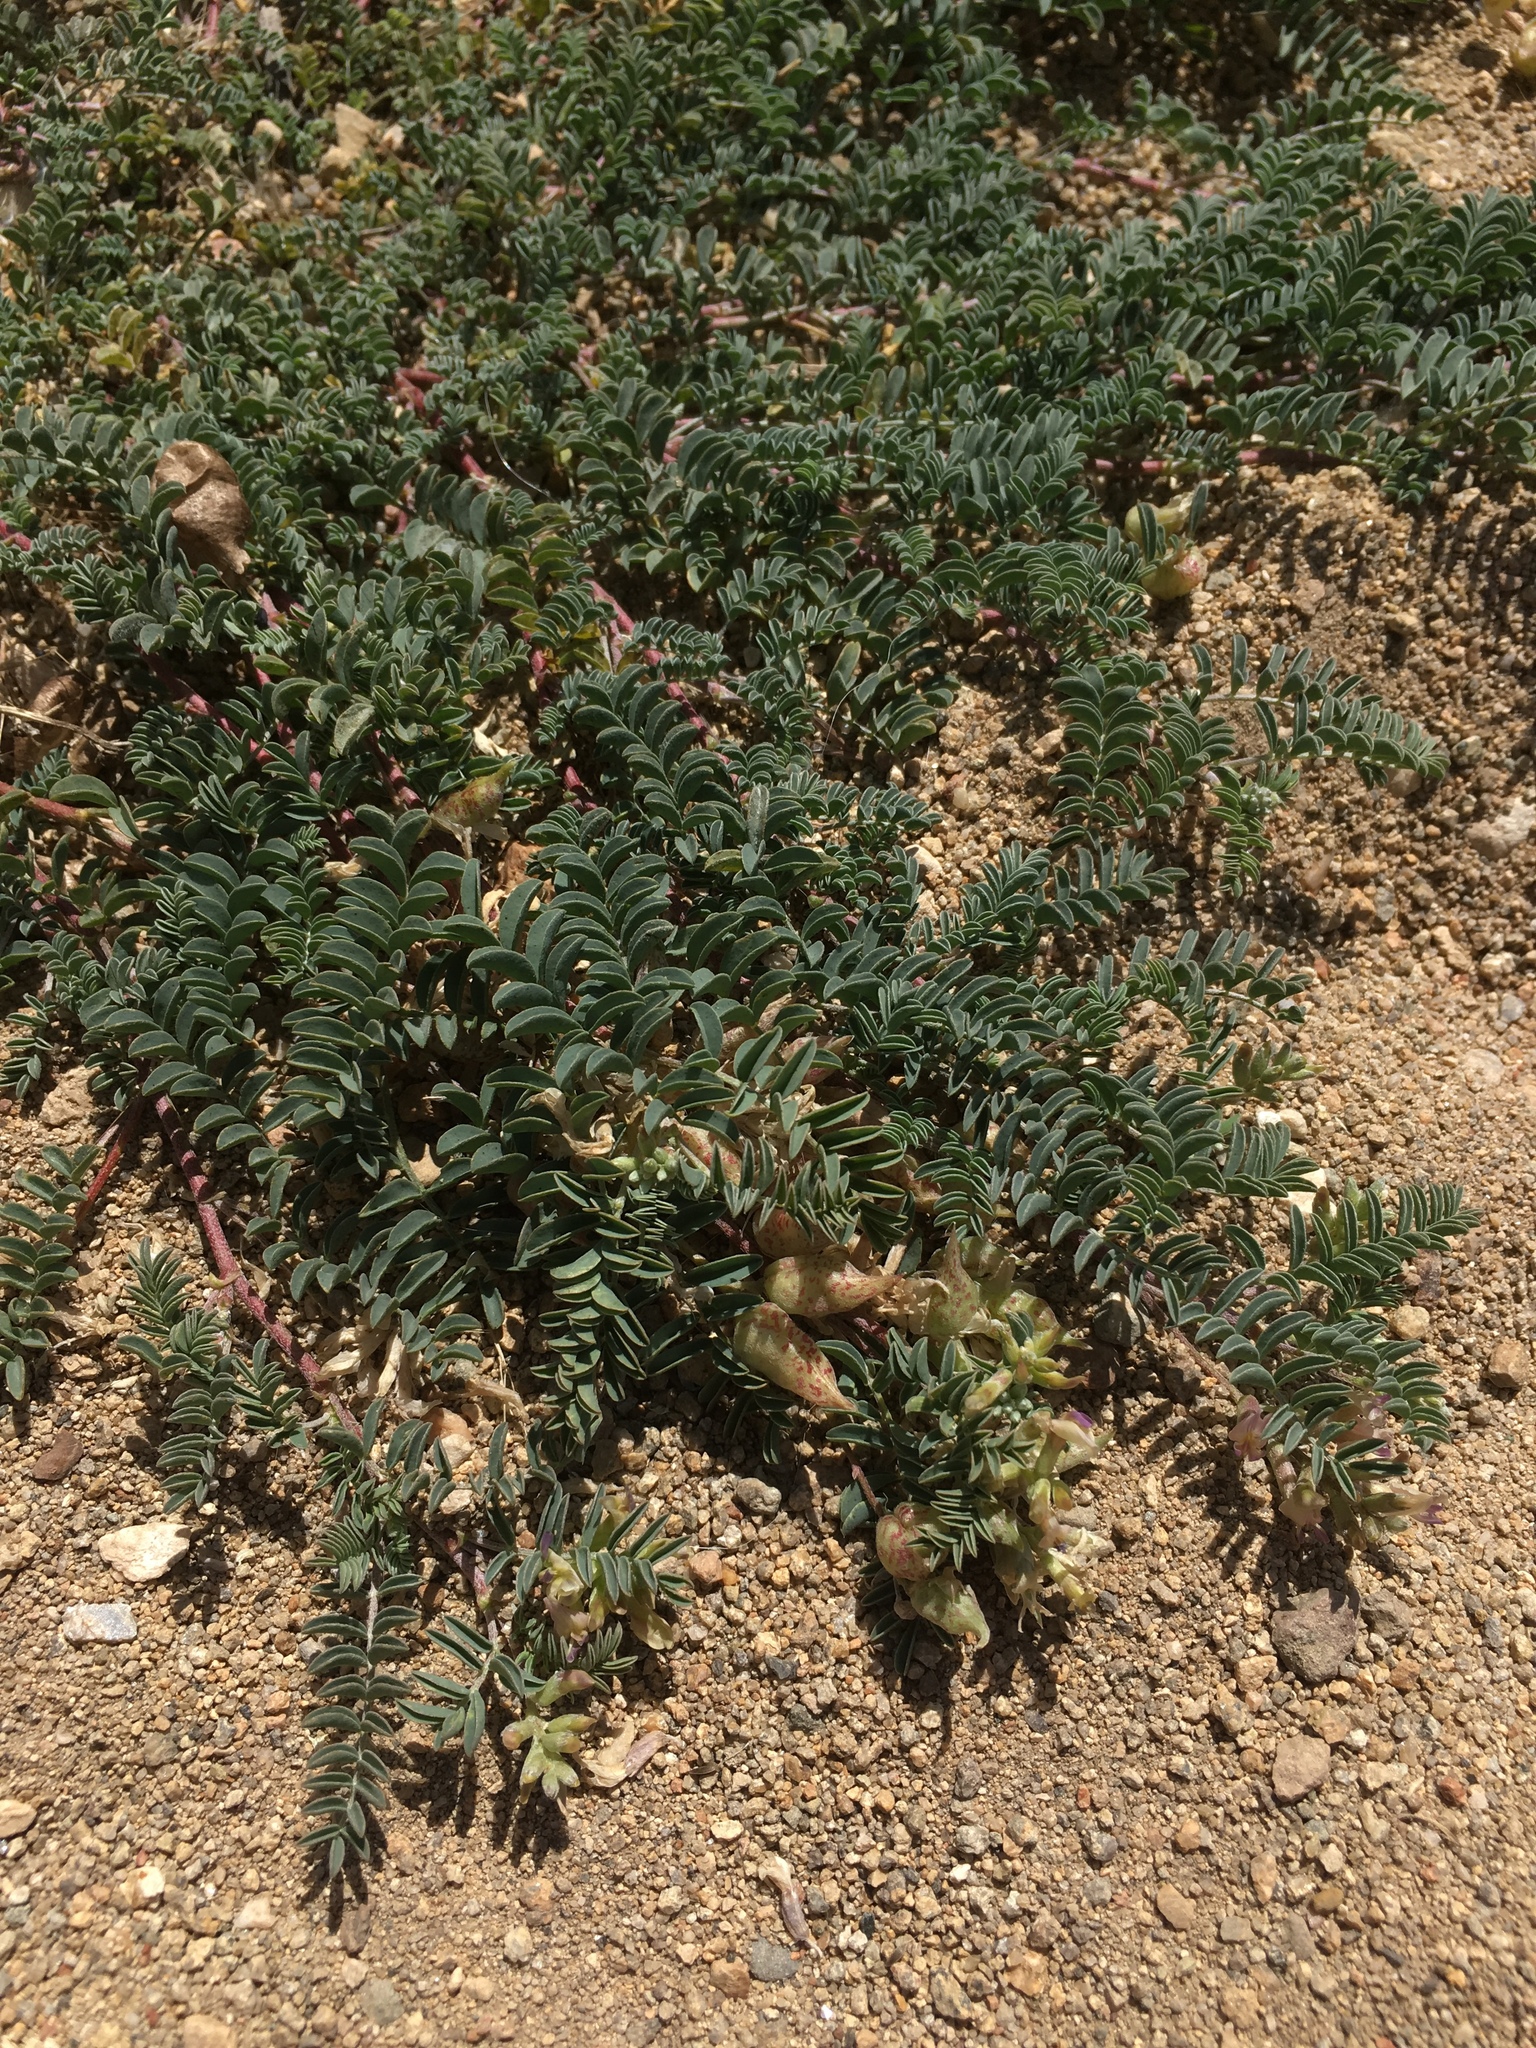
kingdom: Plantae
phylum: Tracheophyta
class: Magnoliopsida
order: Fabales
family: Fabaceae
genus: Astragalus
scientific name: Astragalus lentiginosus
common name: Freckled milkvetch
